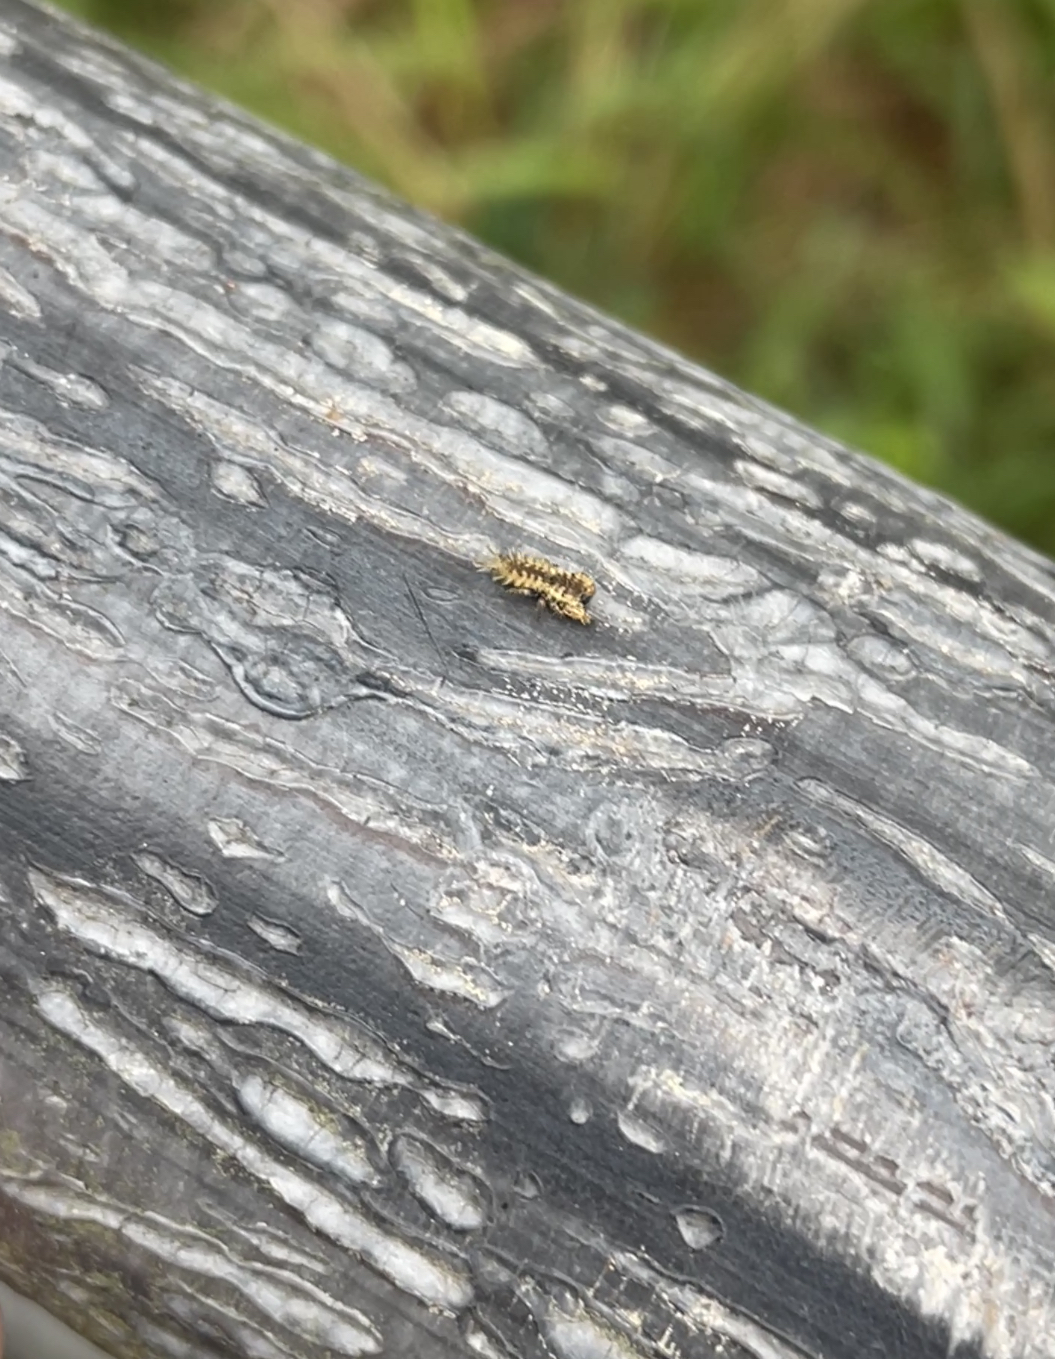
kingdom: Animalia
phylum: Arthropoda
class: Arachnida
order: Araneae
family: Salticidae
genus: Uroballus
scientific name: Uroballus carlei
